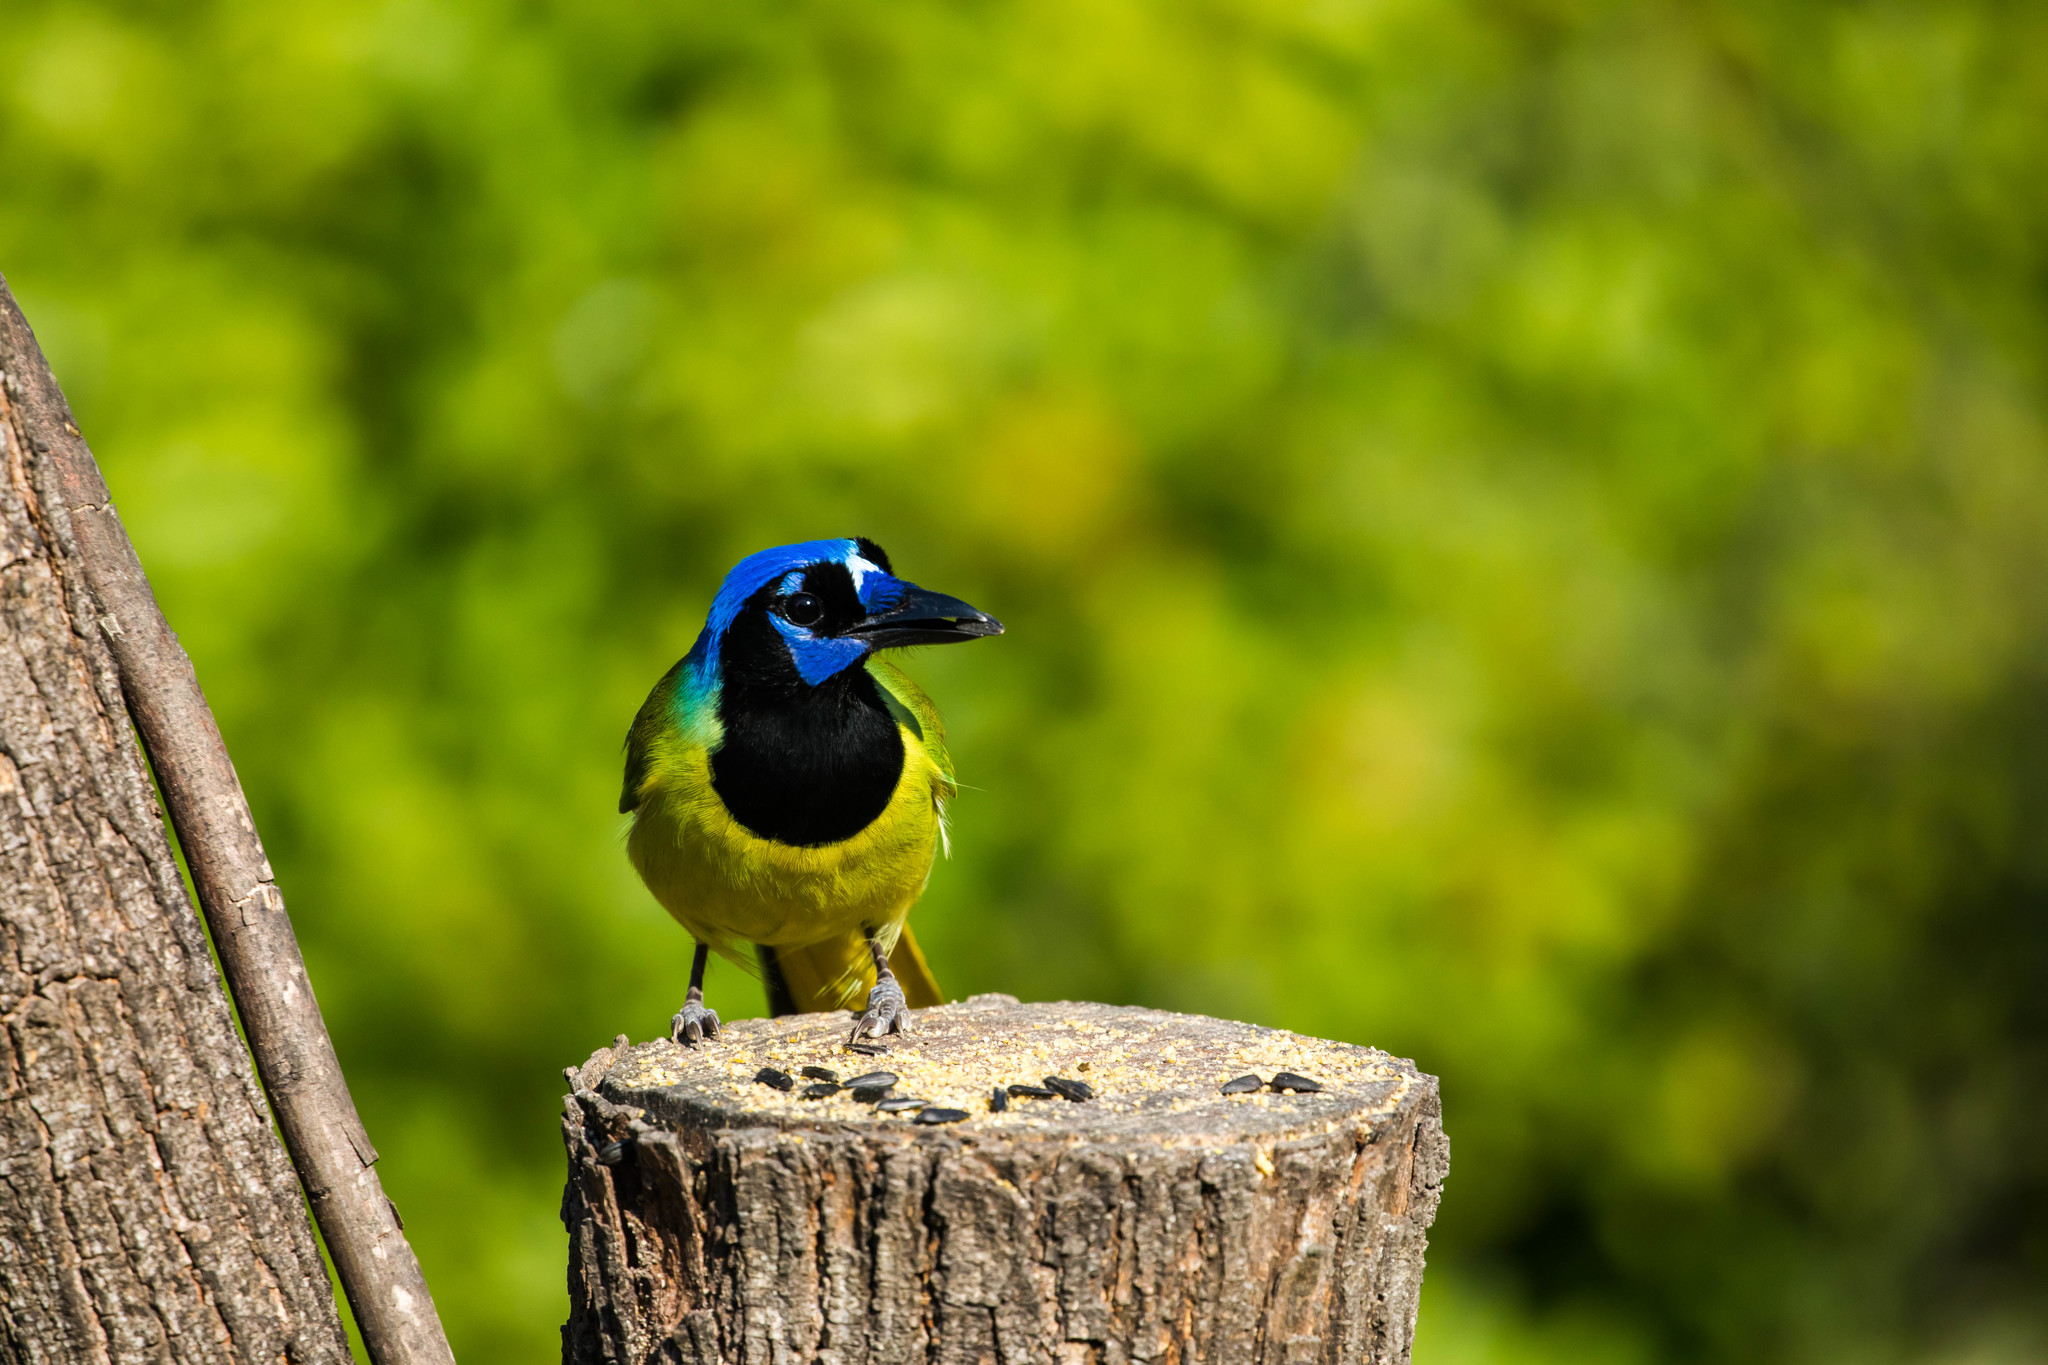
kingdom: Animalia
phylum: Chordata
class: Aves
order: Passeriformes
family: Corvidae
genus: Cyanocorax
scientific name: Cyanocorax yncas
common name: Green jay
